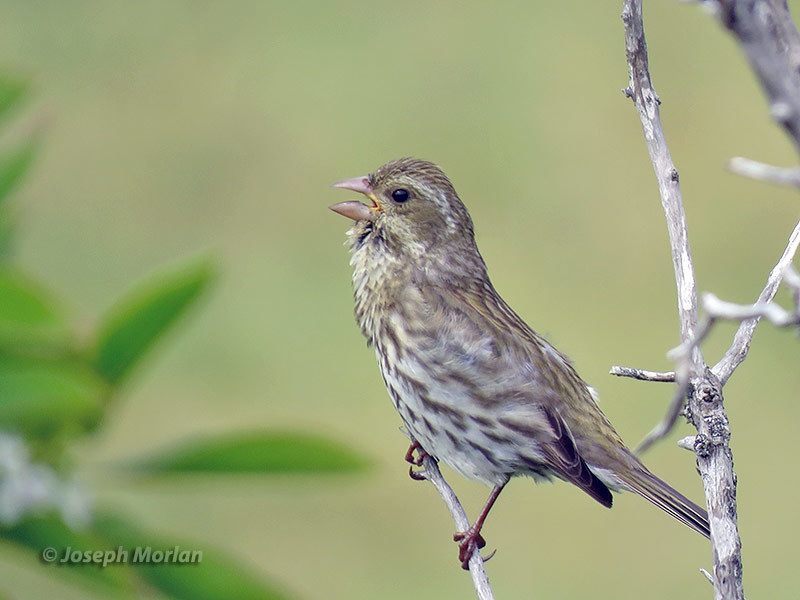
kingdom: Animalia
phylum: Chordata
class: Aves
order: Passeriformes
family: Fringillidae
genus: Haemorhous
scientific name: Haemorhous purpureus
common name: Purple finch
